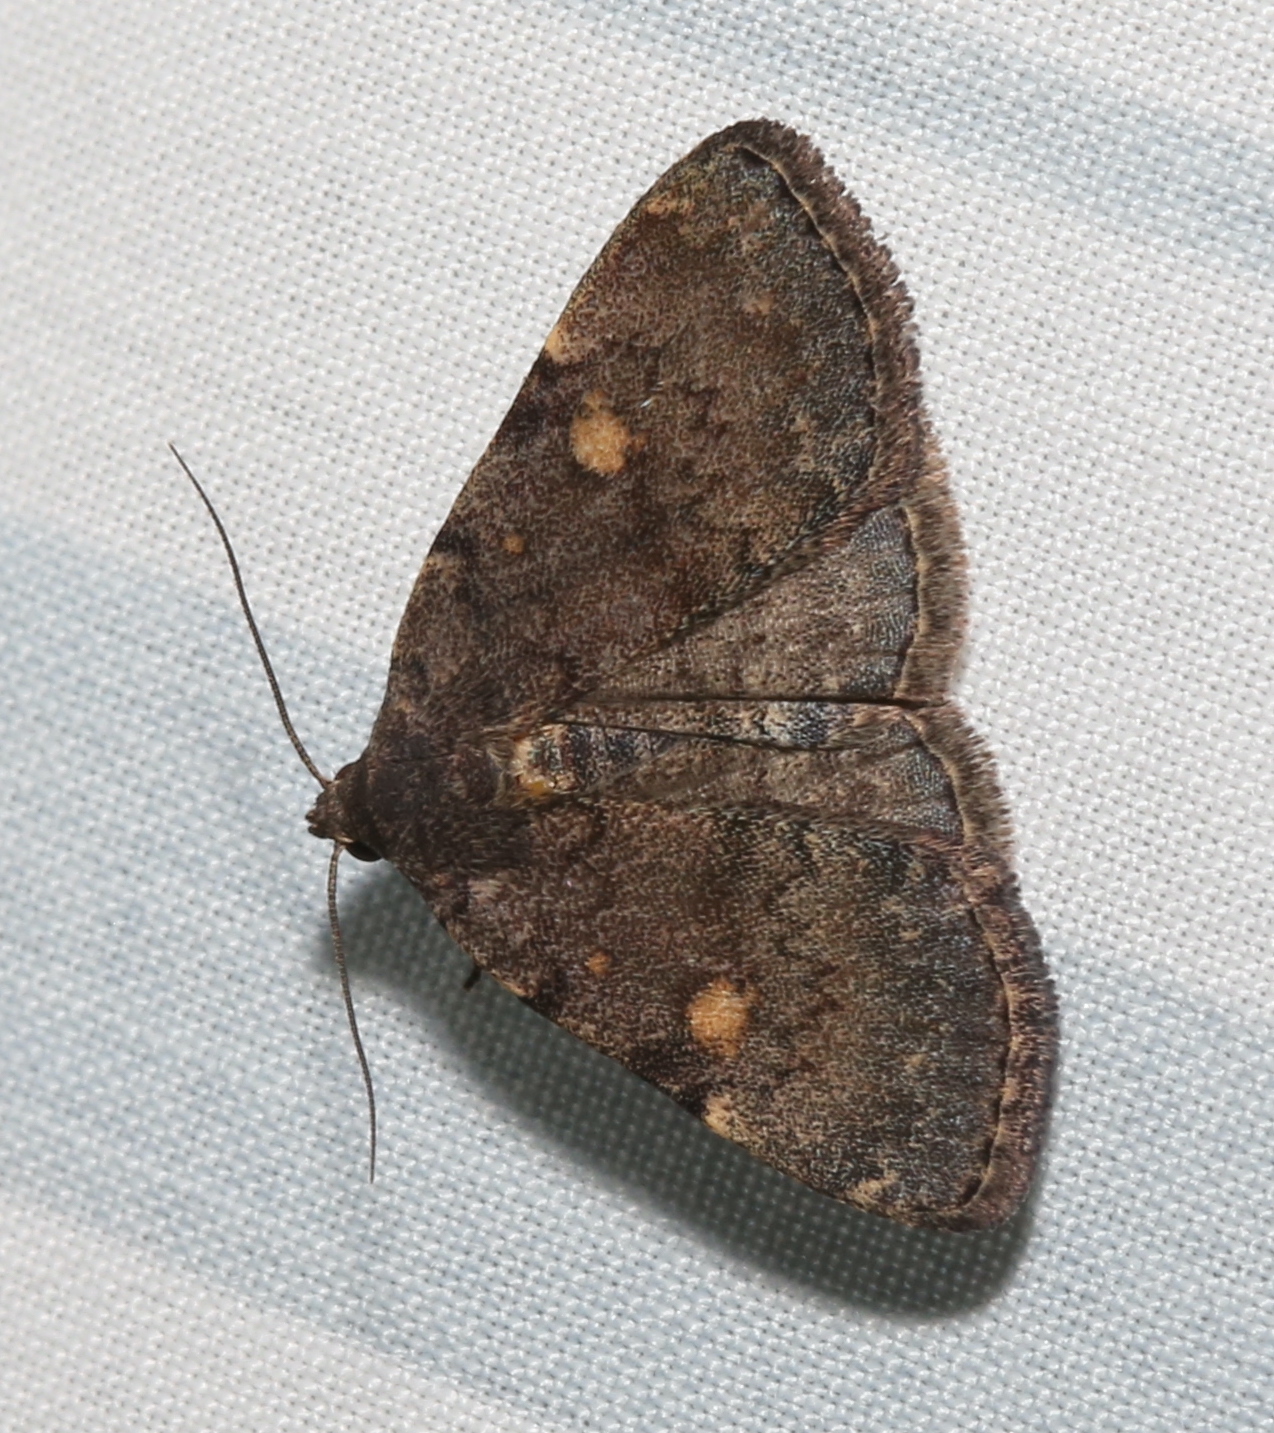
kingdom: Animalia
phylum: Arthropoda
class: Insecta
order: Lepidoptera
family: Erebidae
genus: Idia
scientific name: Idia aemula
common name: Common idia moth
